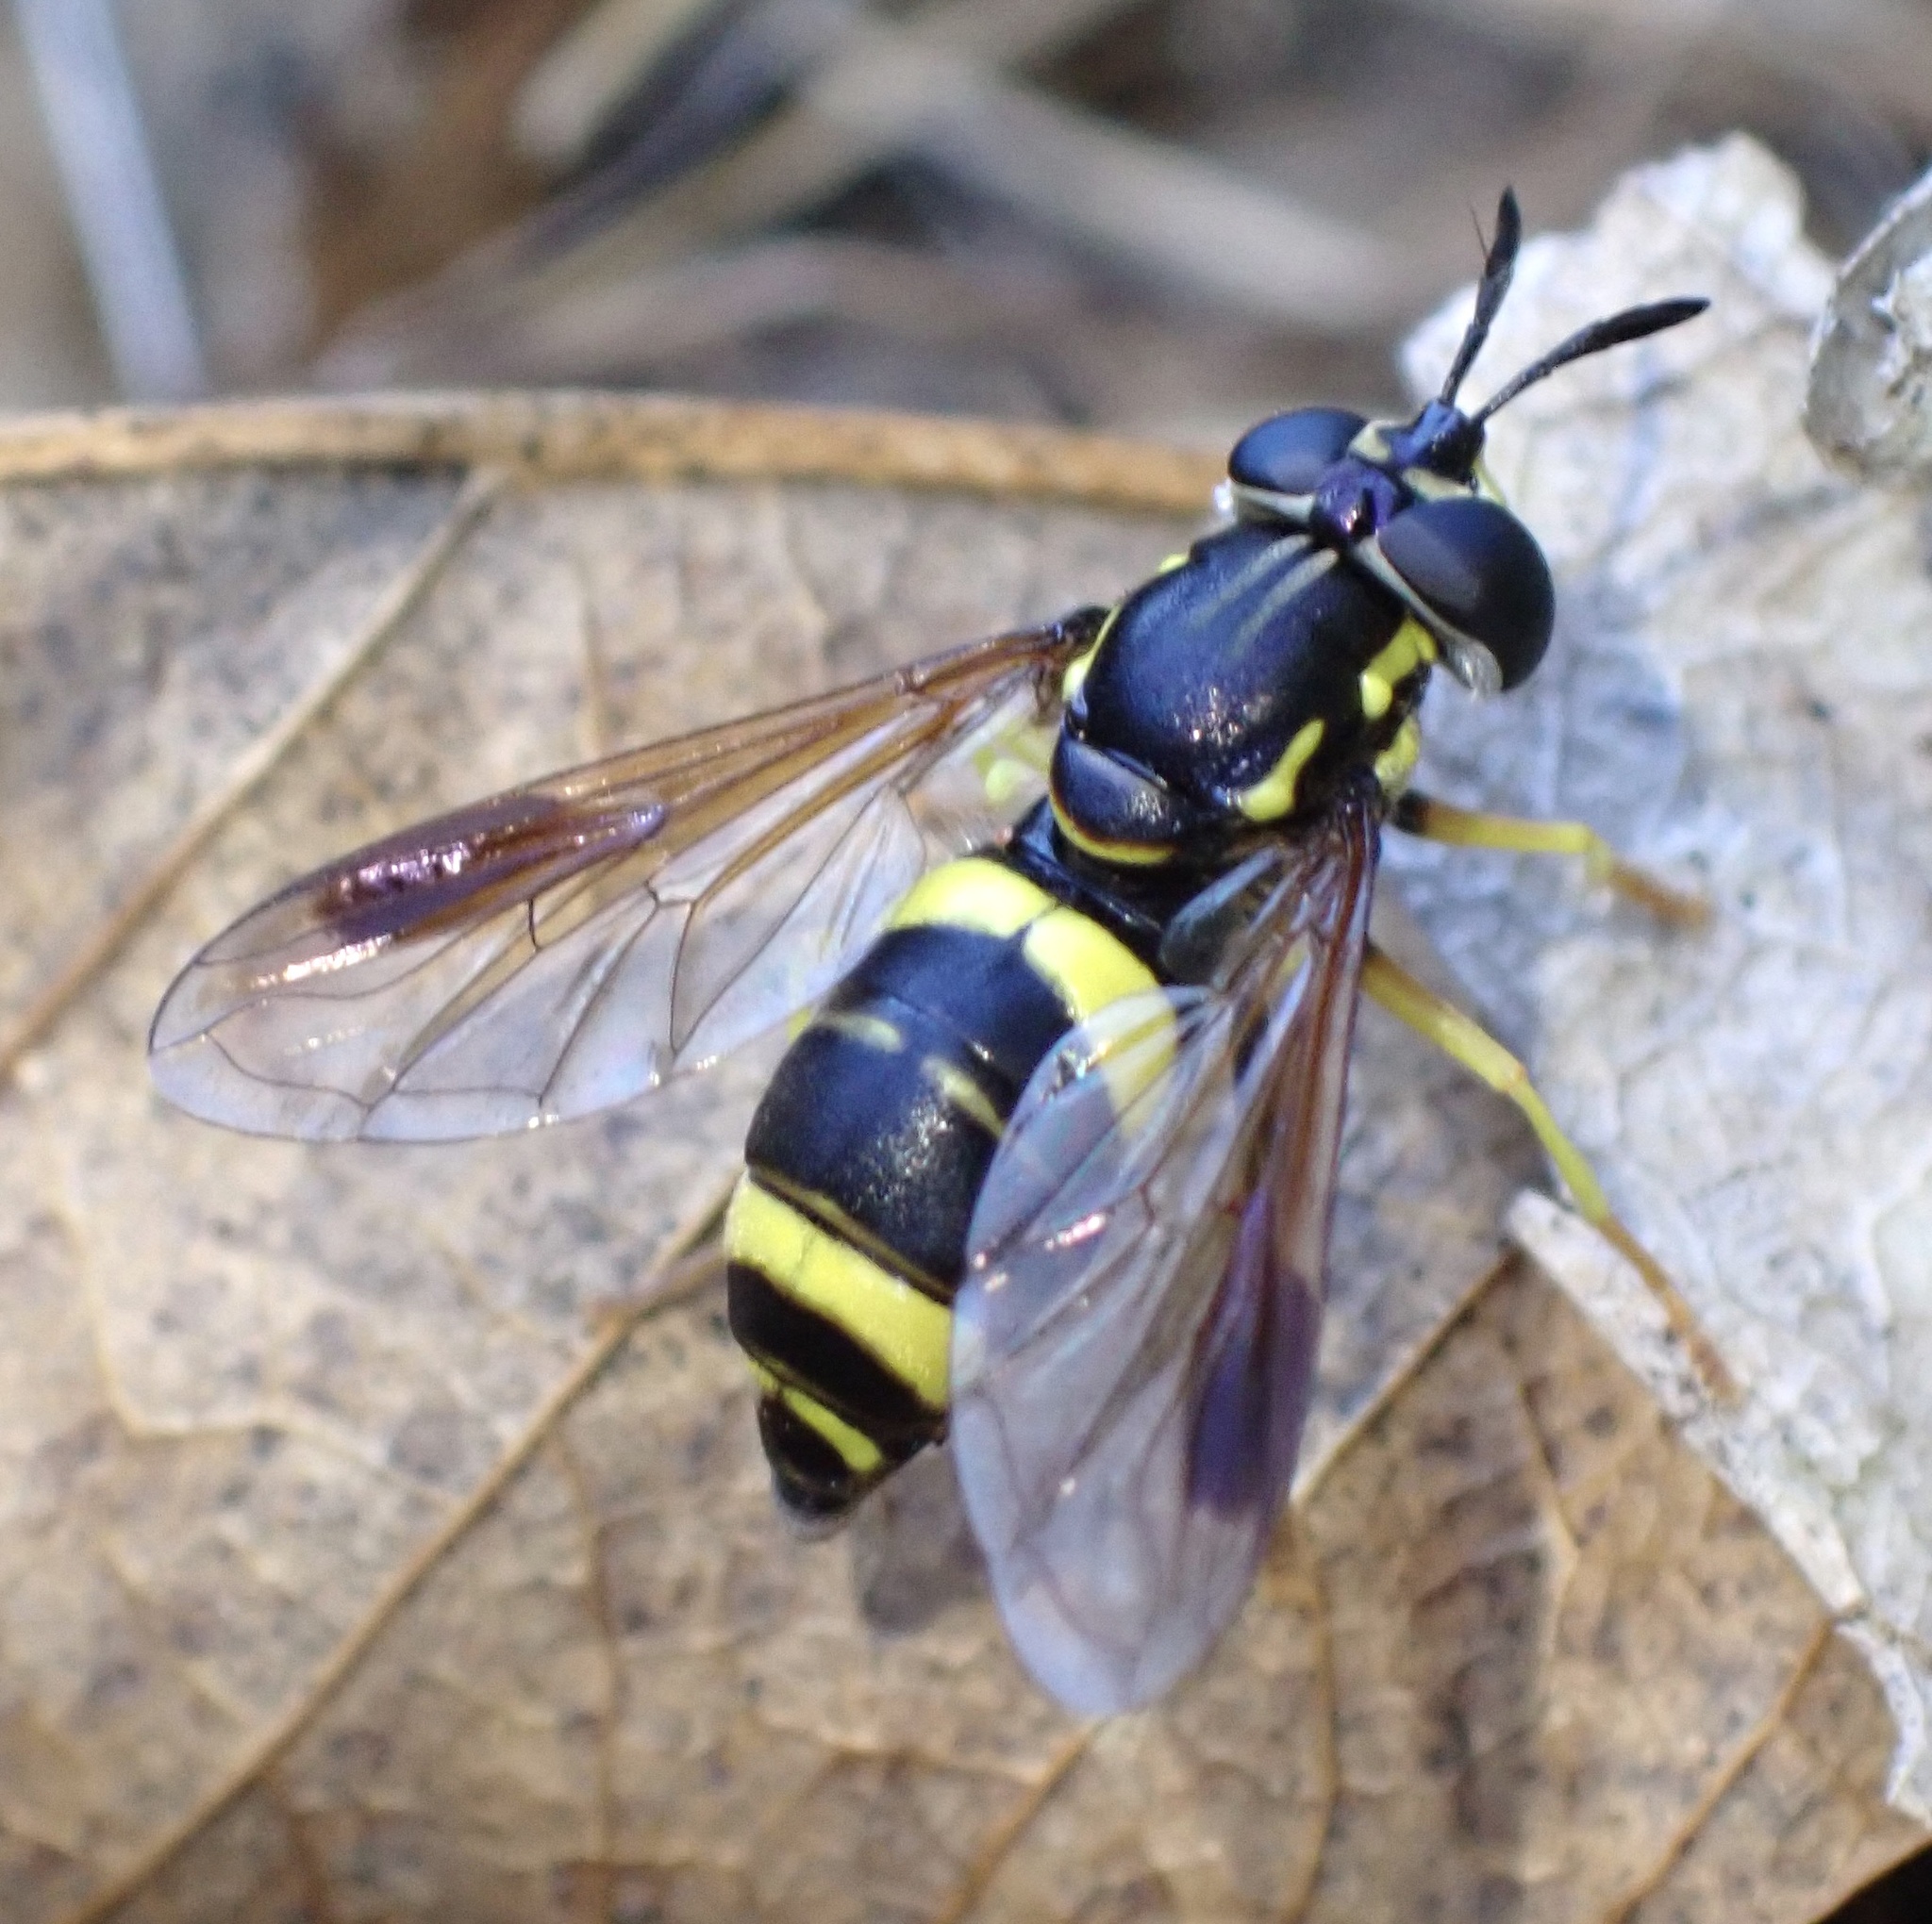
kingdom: Animalia
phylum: Arthropoda
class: Insecta
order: Diptera
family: Syrphidae
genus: Chrysotoxum
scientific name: Chrysotoxum bicincta
